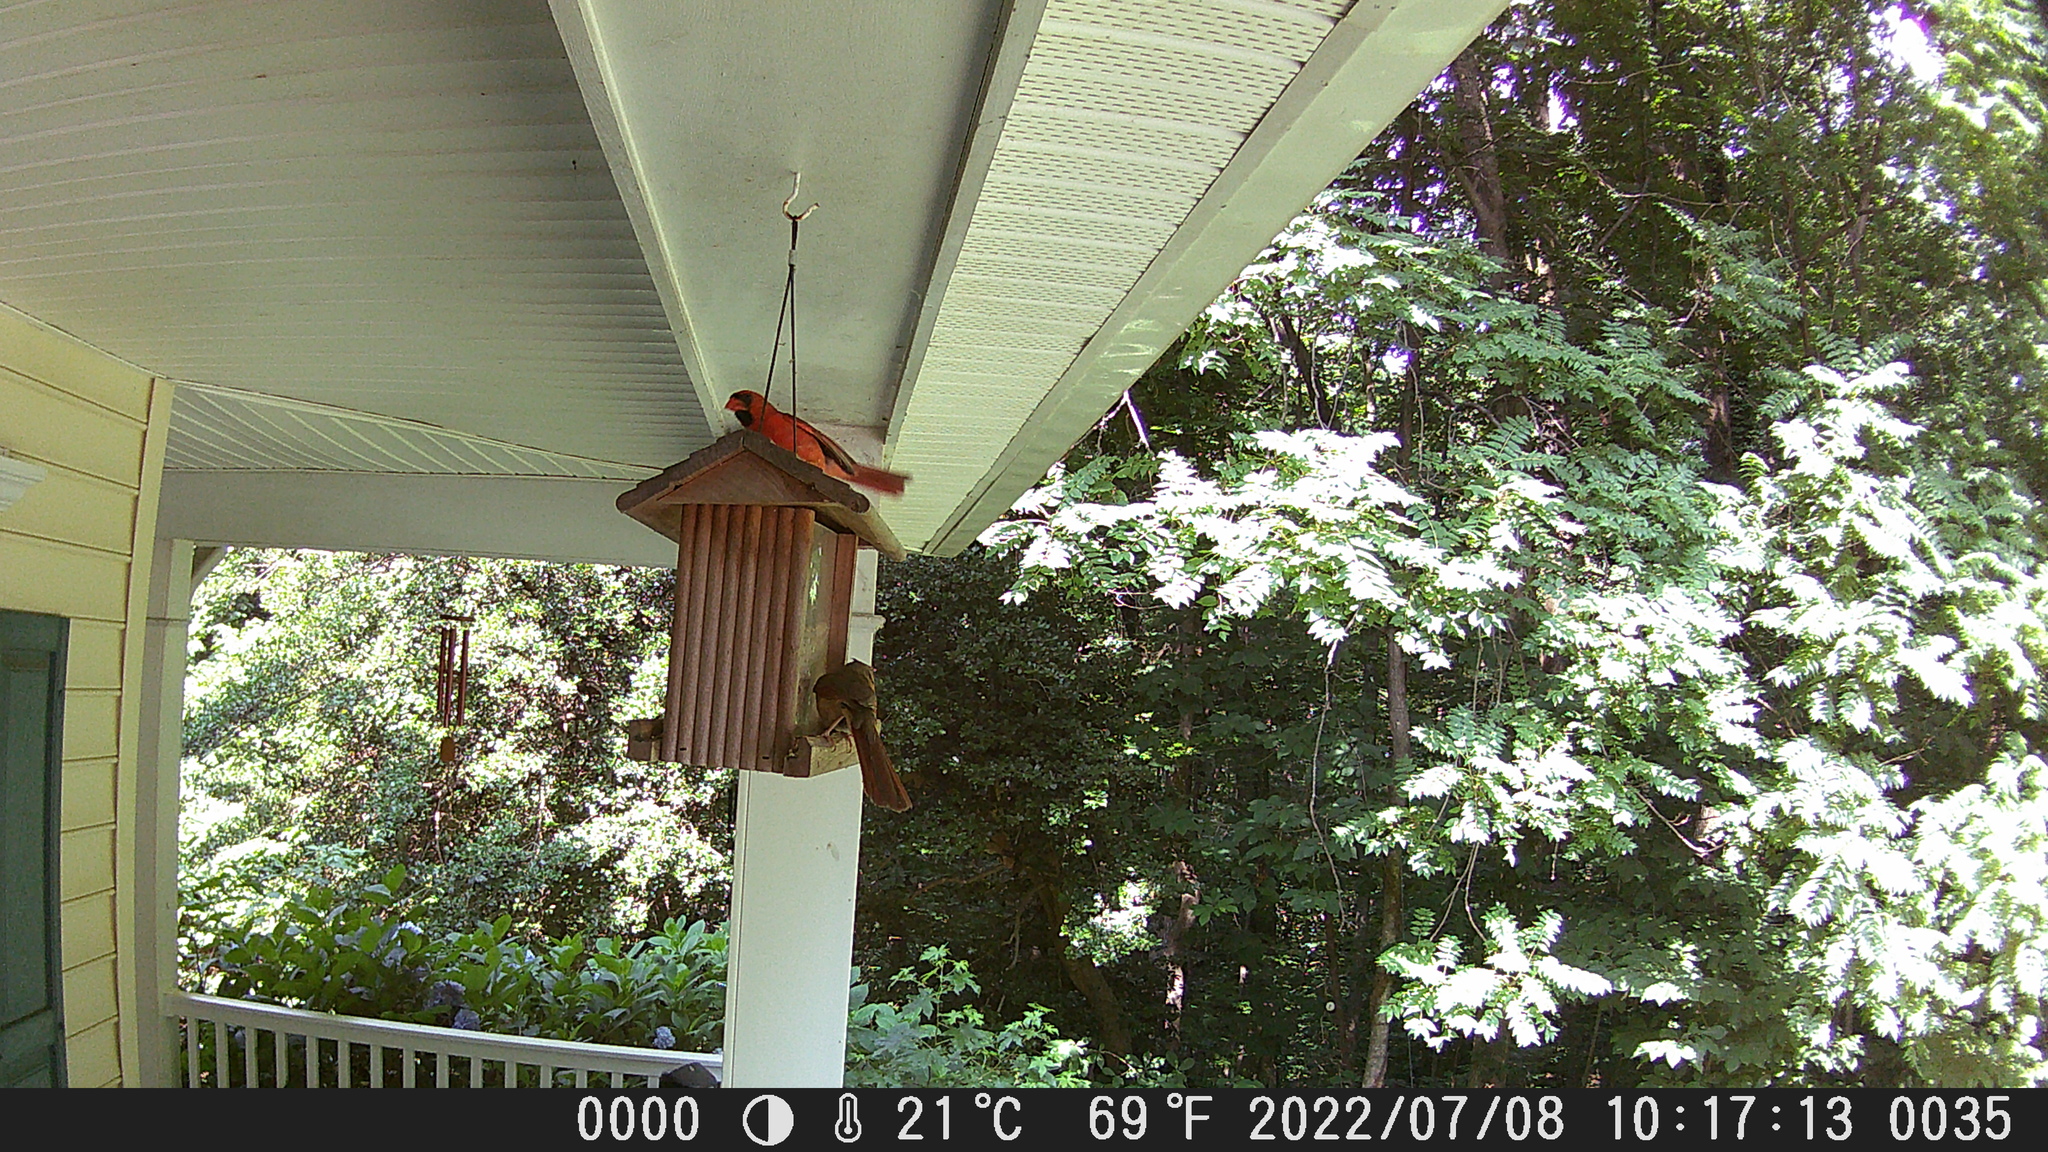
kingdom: Animalia
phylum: Chordata
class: Aves
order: Passeriformes
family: Cardinalidae
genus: Cardinalis
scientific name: Cardinalis cardinalis
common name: Northern cardinal
